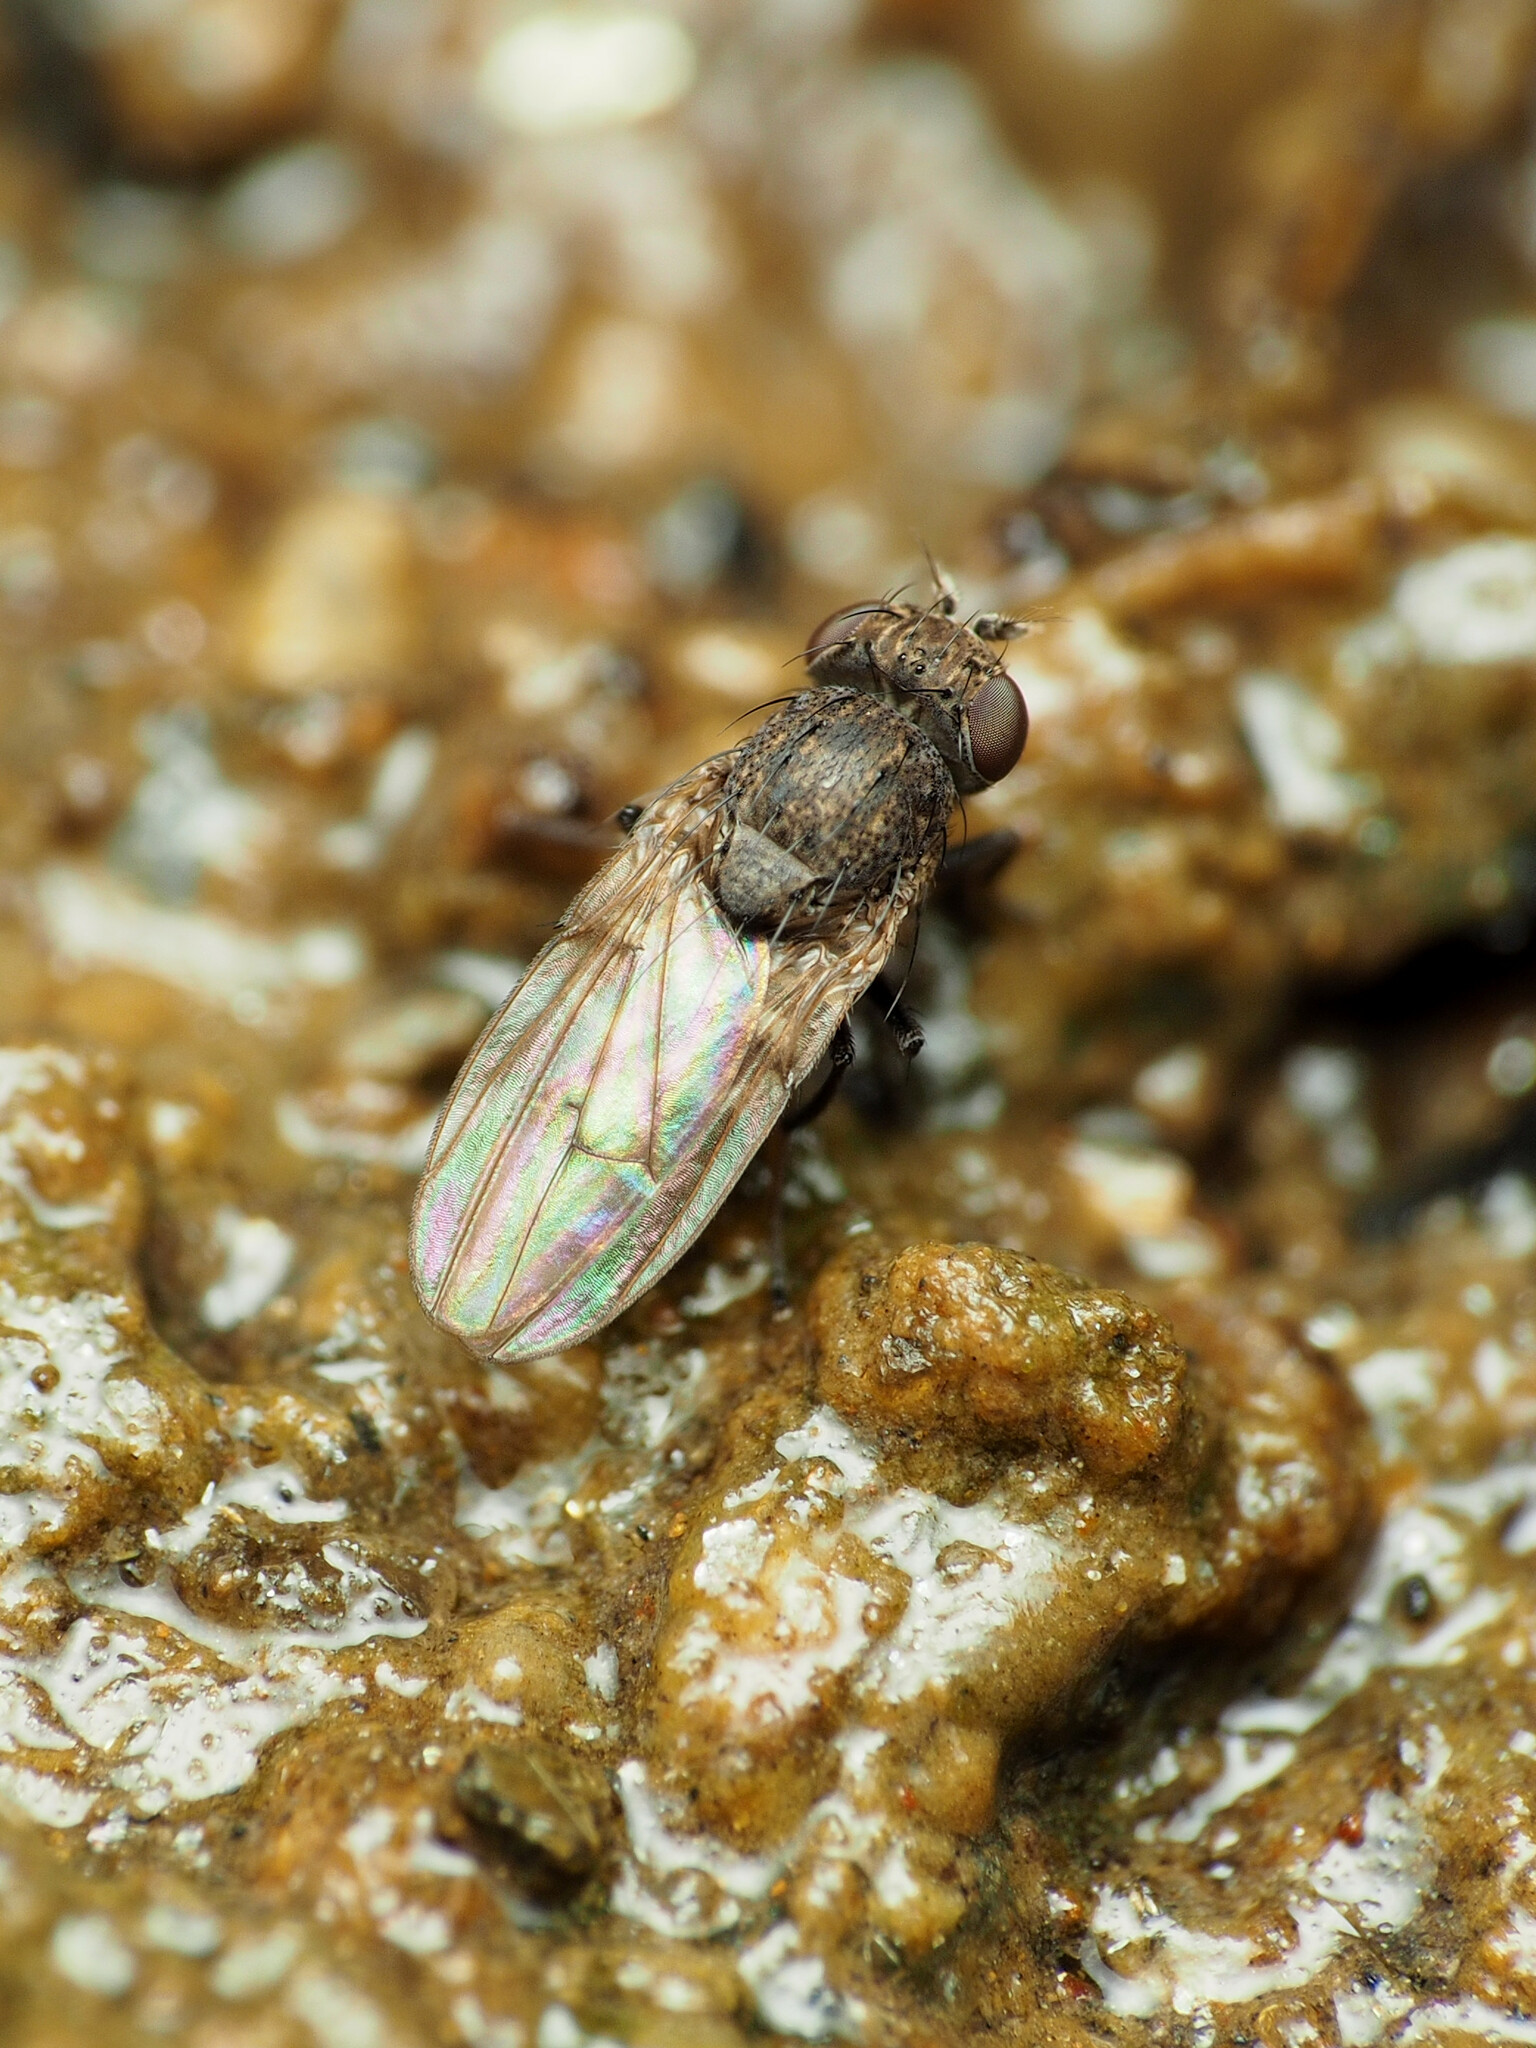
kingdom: Animalia
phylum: Arthropoda
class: Insecta
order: Diptera
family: Ephydridae
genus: Paralimna
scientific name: Paralimna punctipennis
